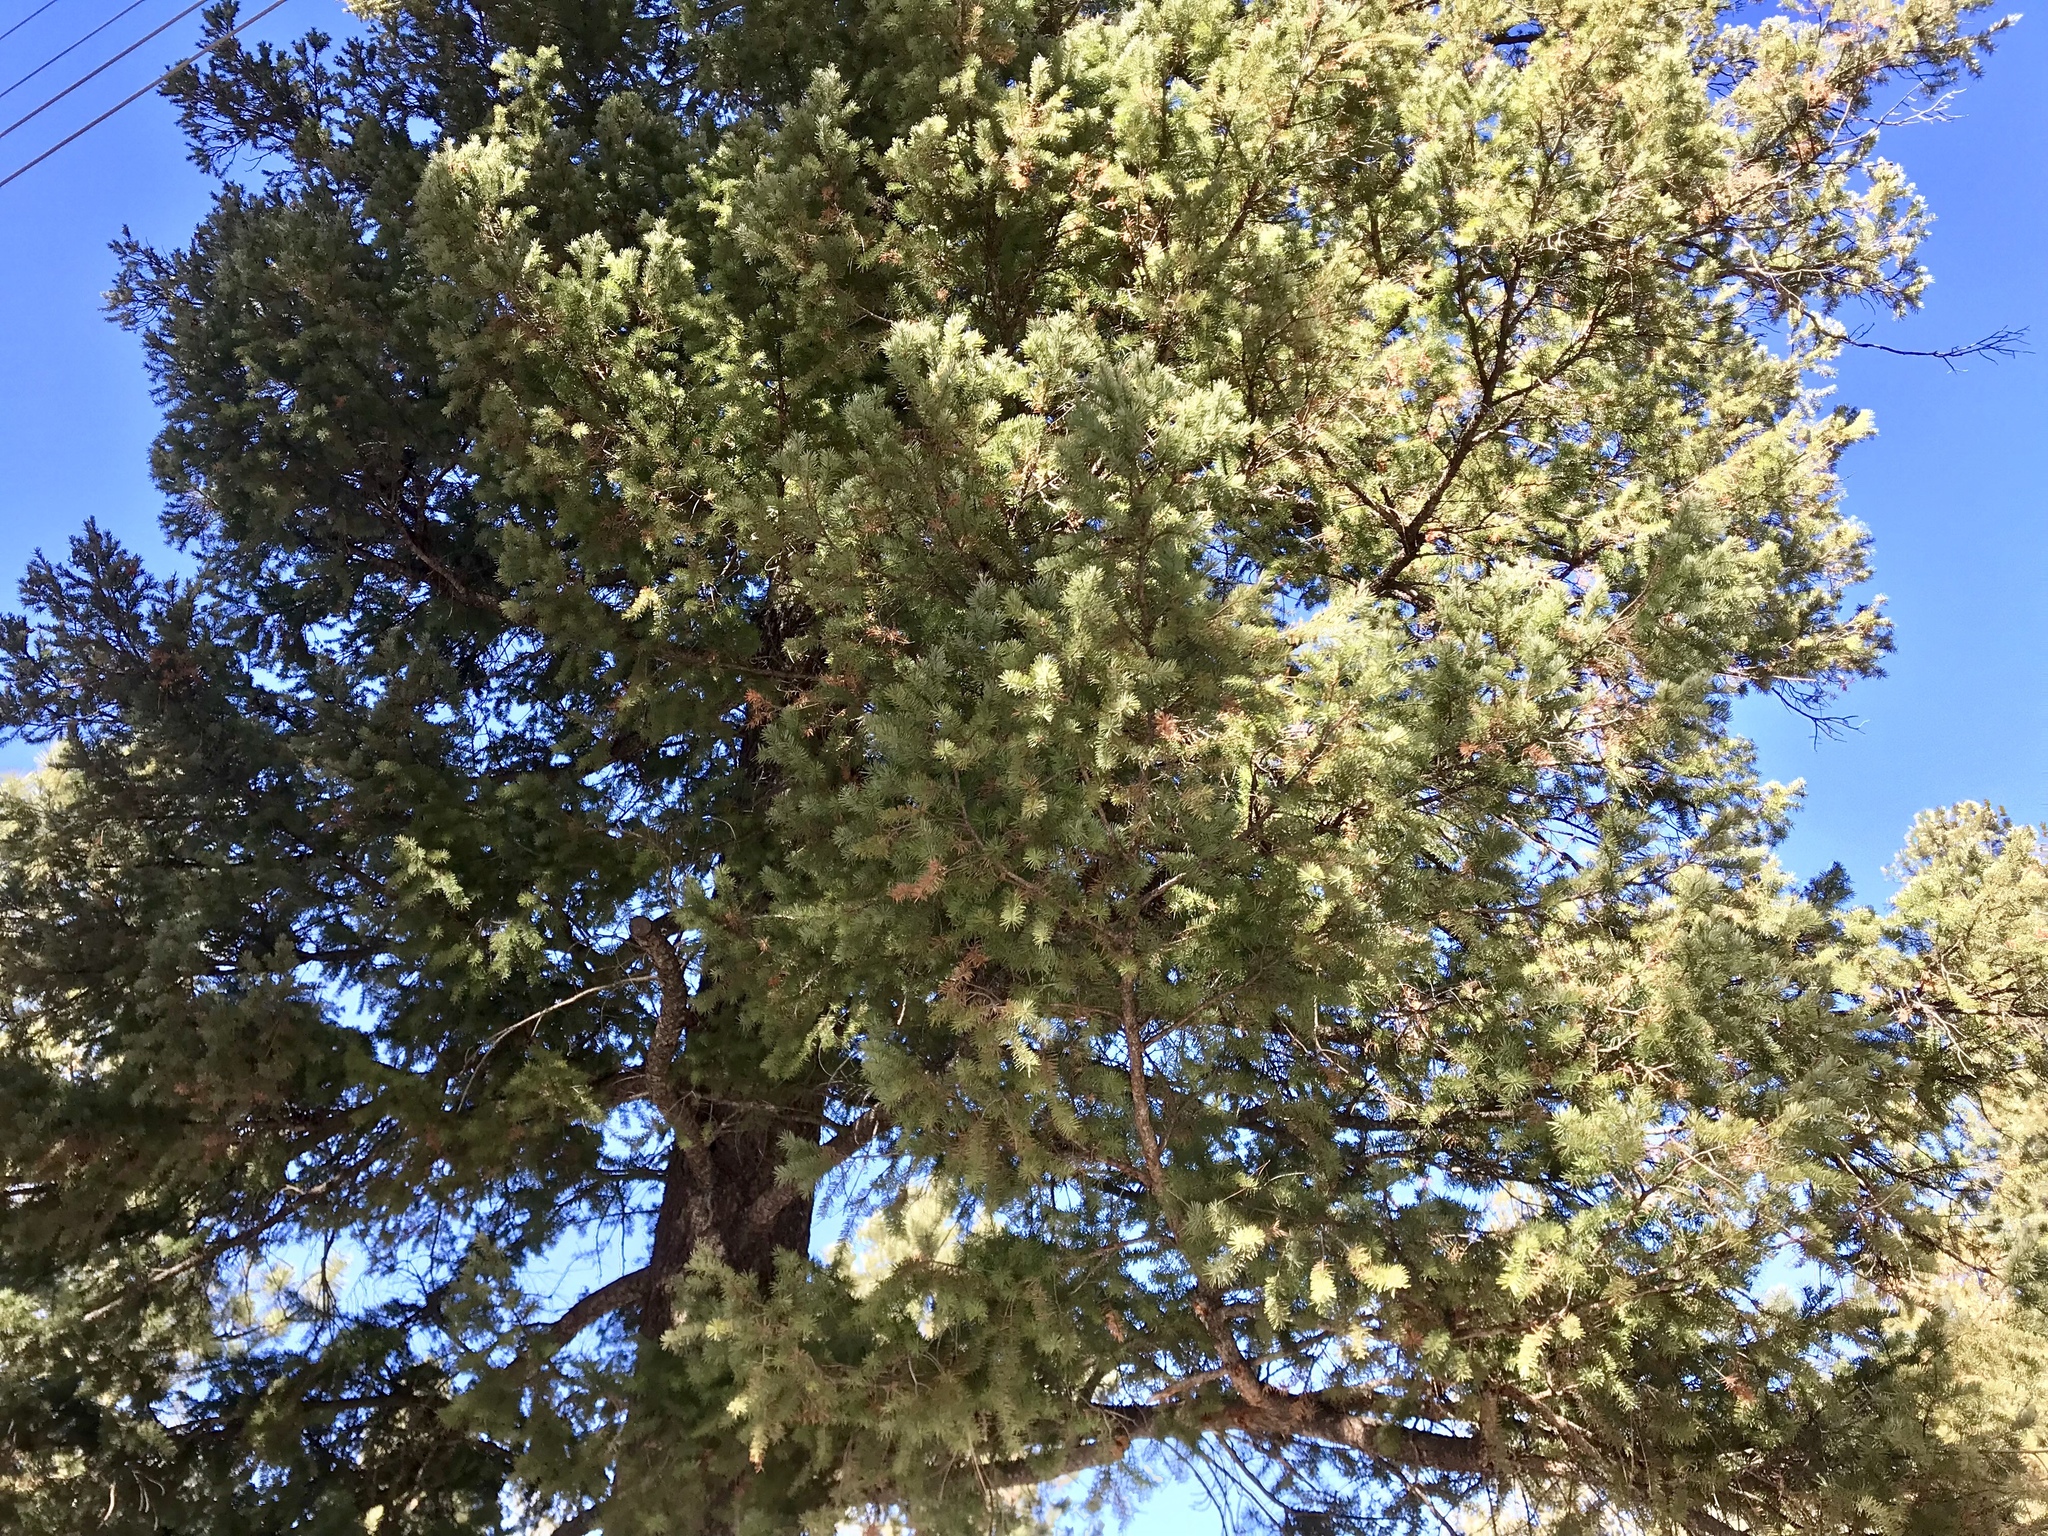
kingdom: Plantae
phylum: Tracheophyta
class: Pinopsida
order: Pinales
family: Pinaceae
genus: Pseudotsuga
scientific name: Pseudotsuga menziesii
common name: Douglas fir
